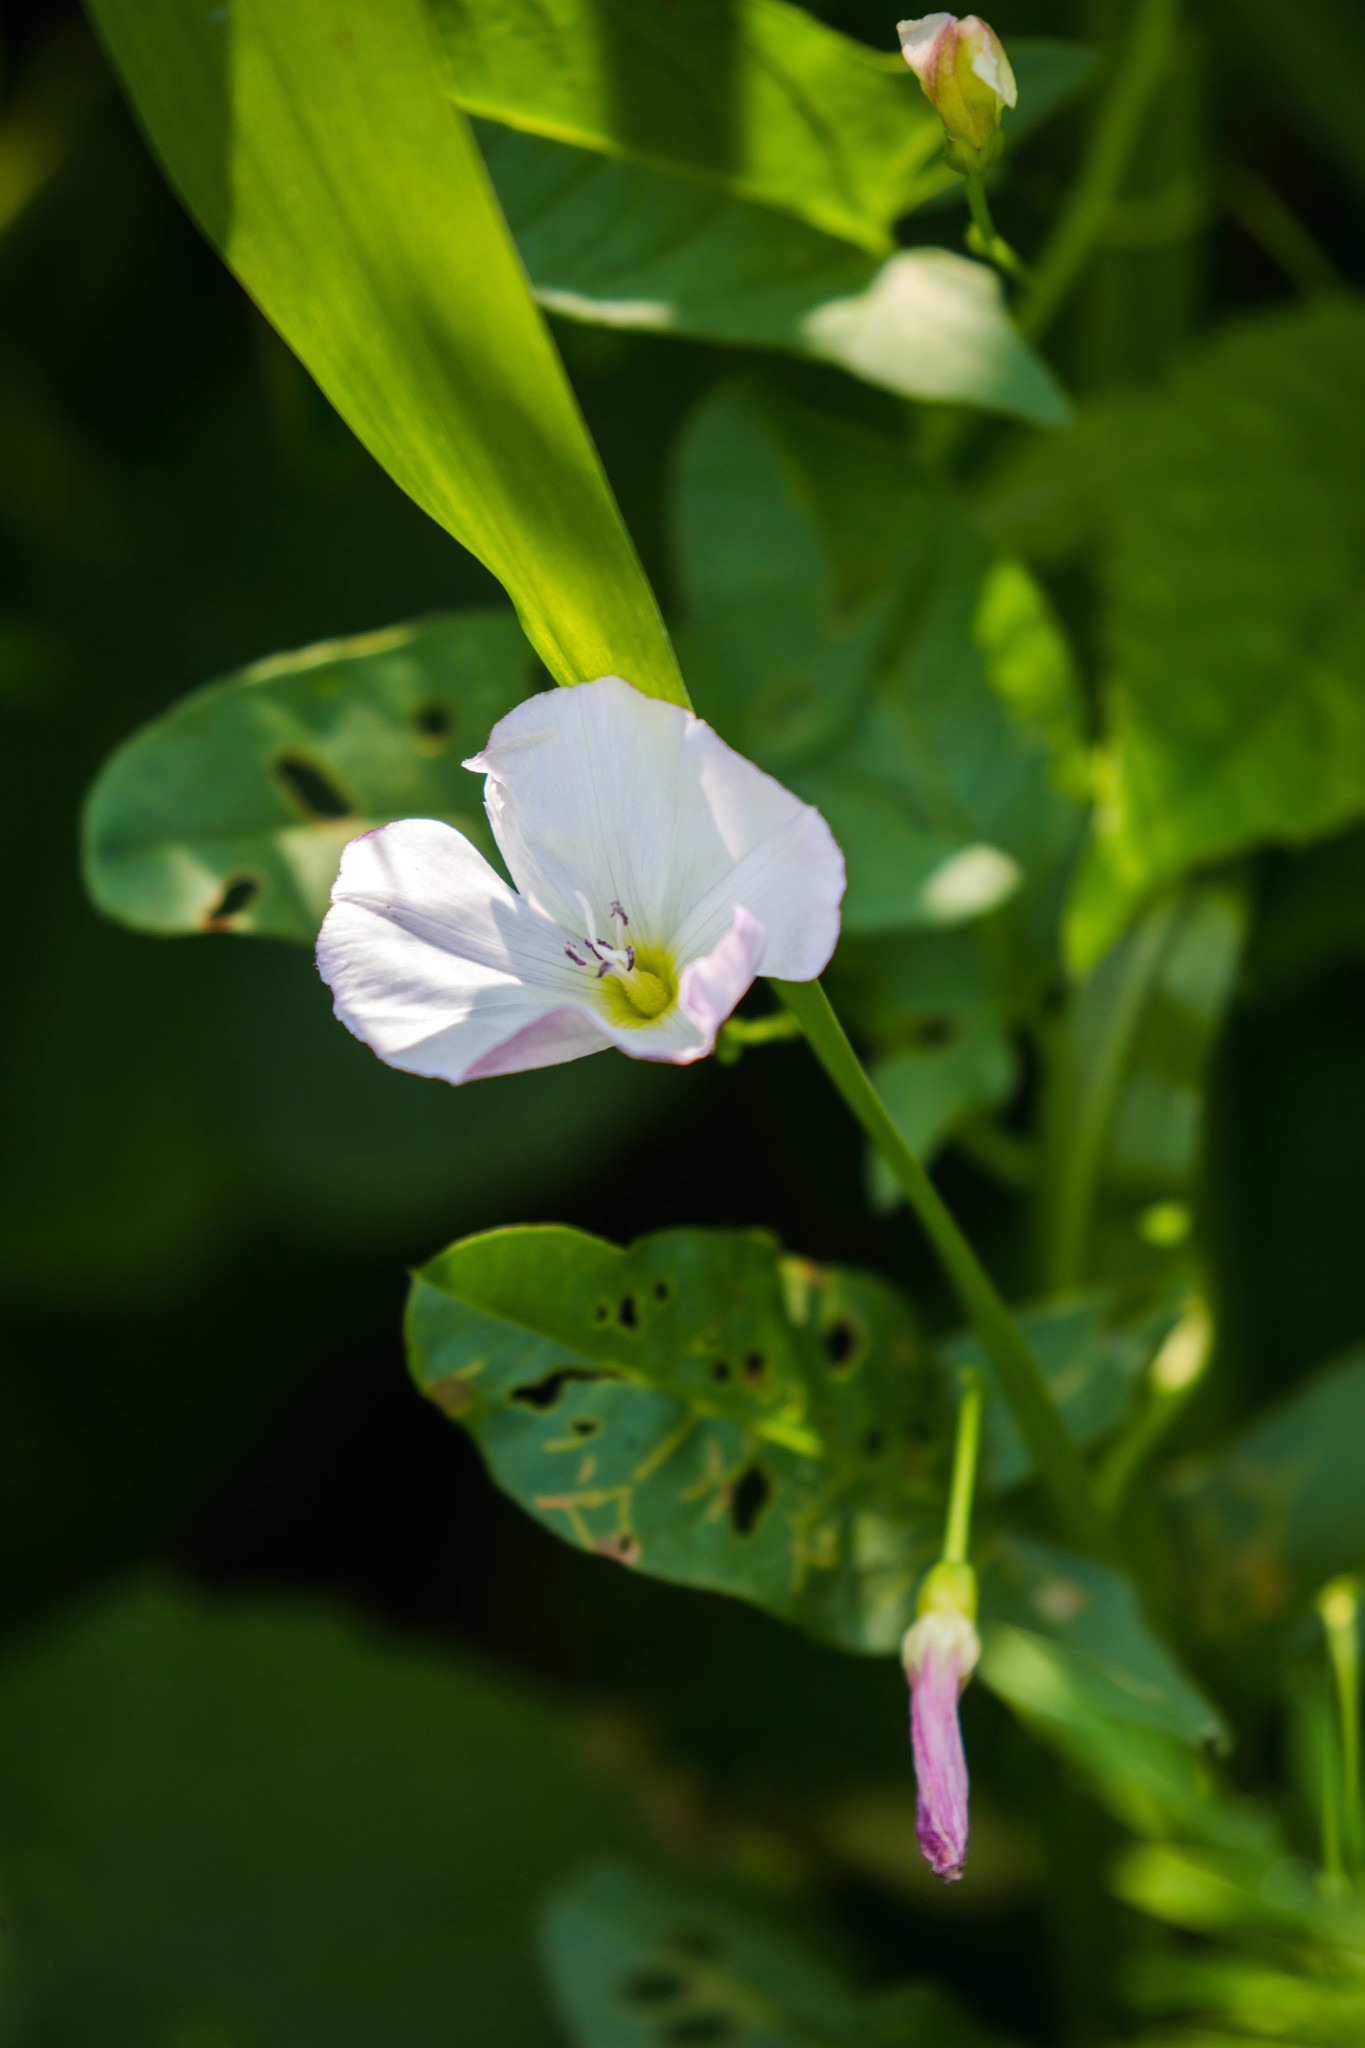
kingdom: Plantae
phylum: Tracheophyta
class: Magnoliopsida
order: Solanales
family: Convolvulaceae
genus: Convolvulus
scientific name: Convolvulus arvensis
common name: Field bindweed
